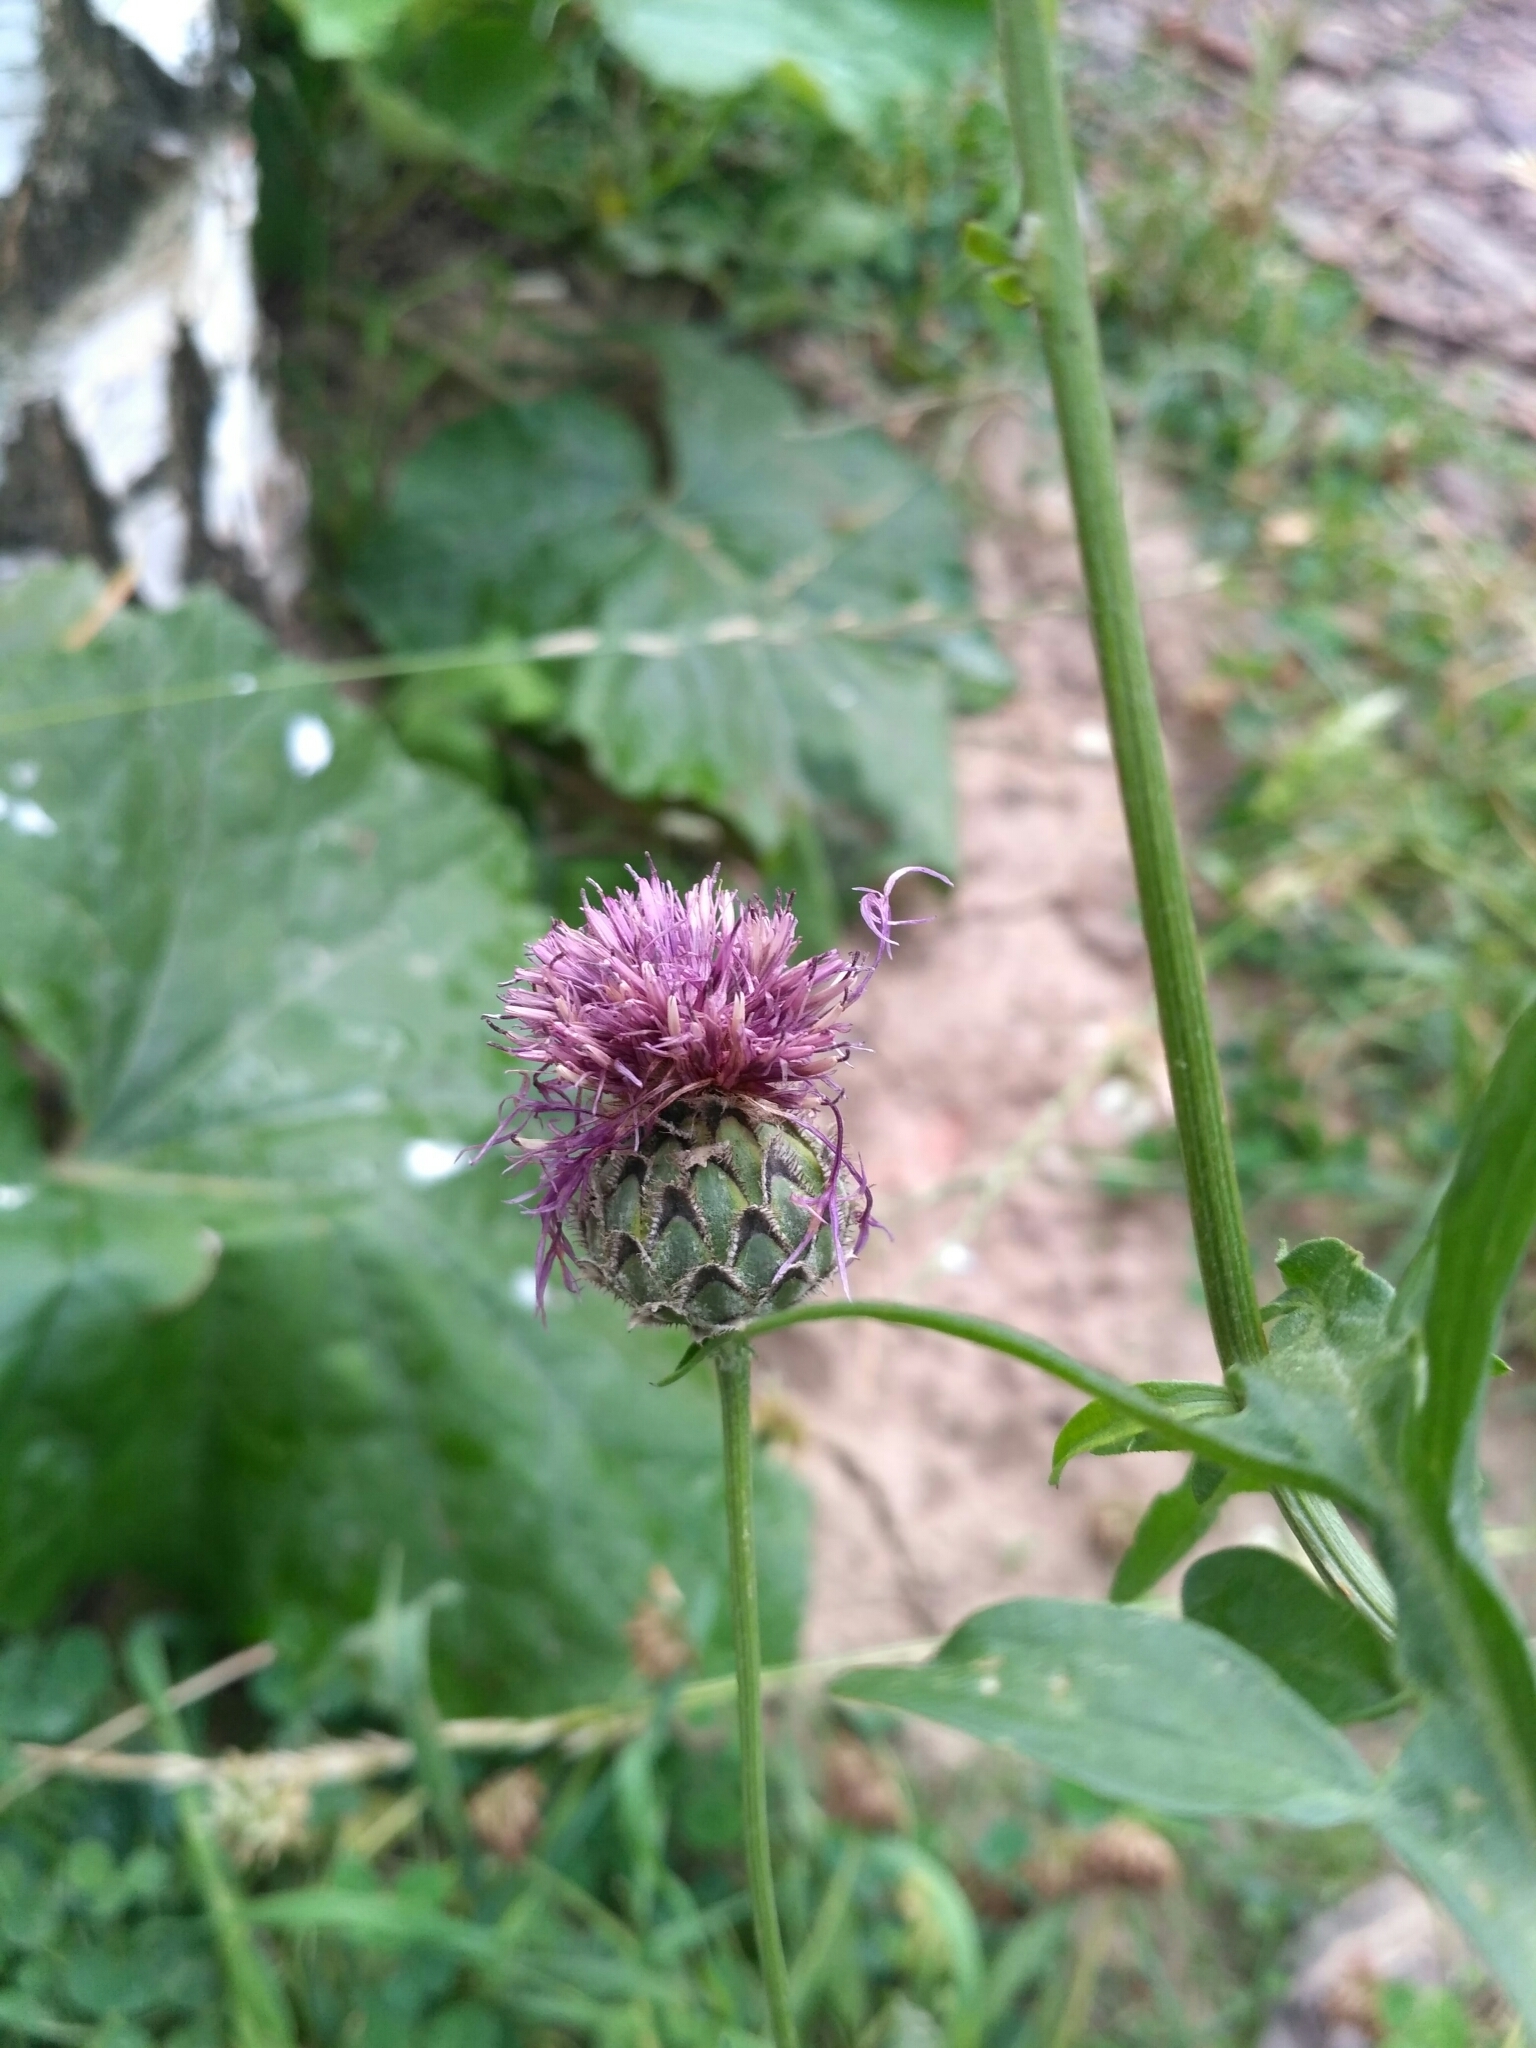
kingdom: Plantae
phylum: Tracheophyta
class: Magnoliopsida
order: Asterales
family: Asteraceae
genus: Centaurea
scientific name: Centaurea scabiosa
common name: Greater knapweed
